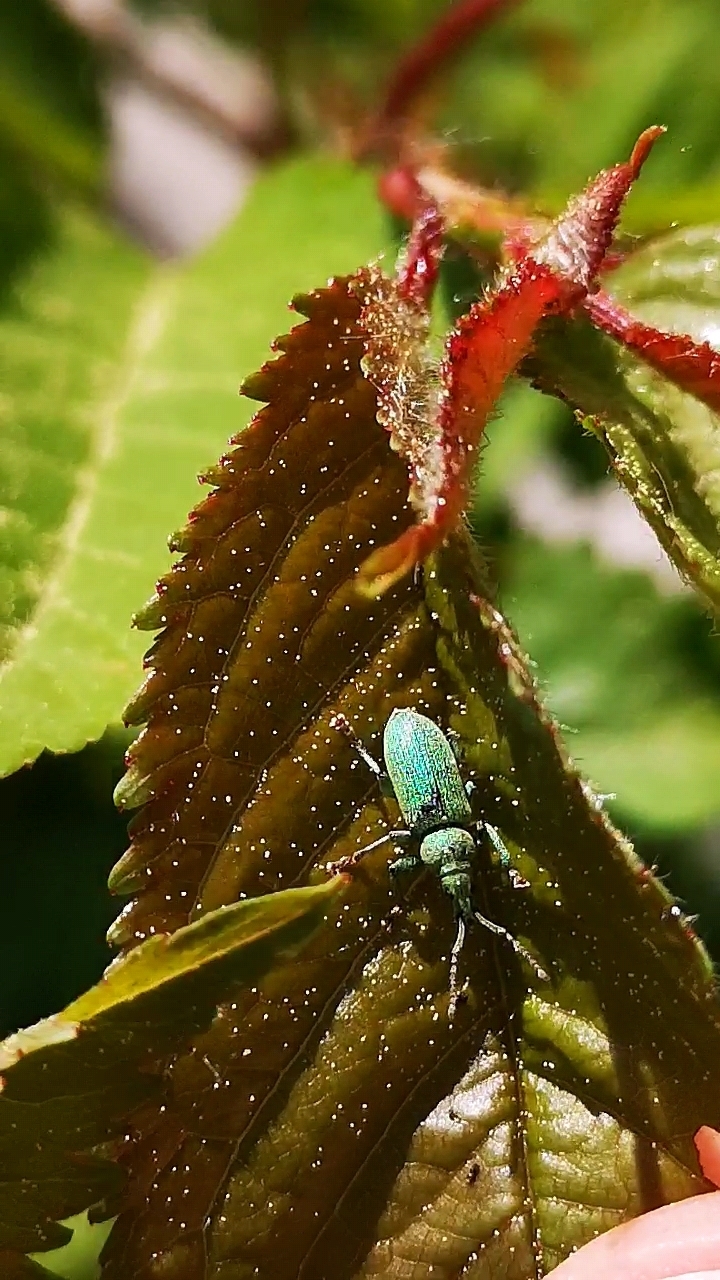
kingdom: Animalia
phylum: Arthropoda
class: Insecta
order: Coleoptera
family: Curculionidae
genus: Phyllobius
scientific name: Phyllobius maculicornis
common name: Green leaf weevil
